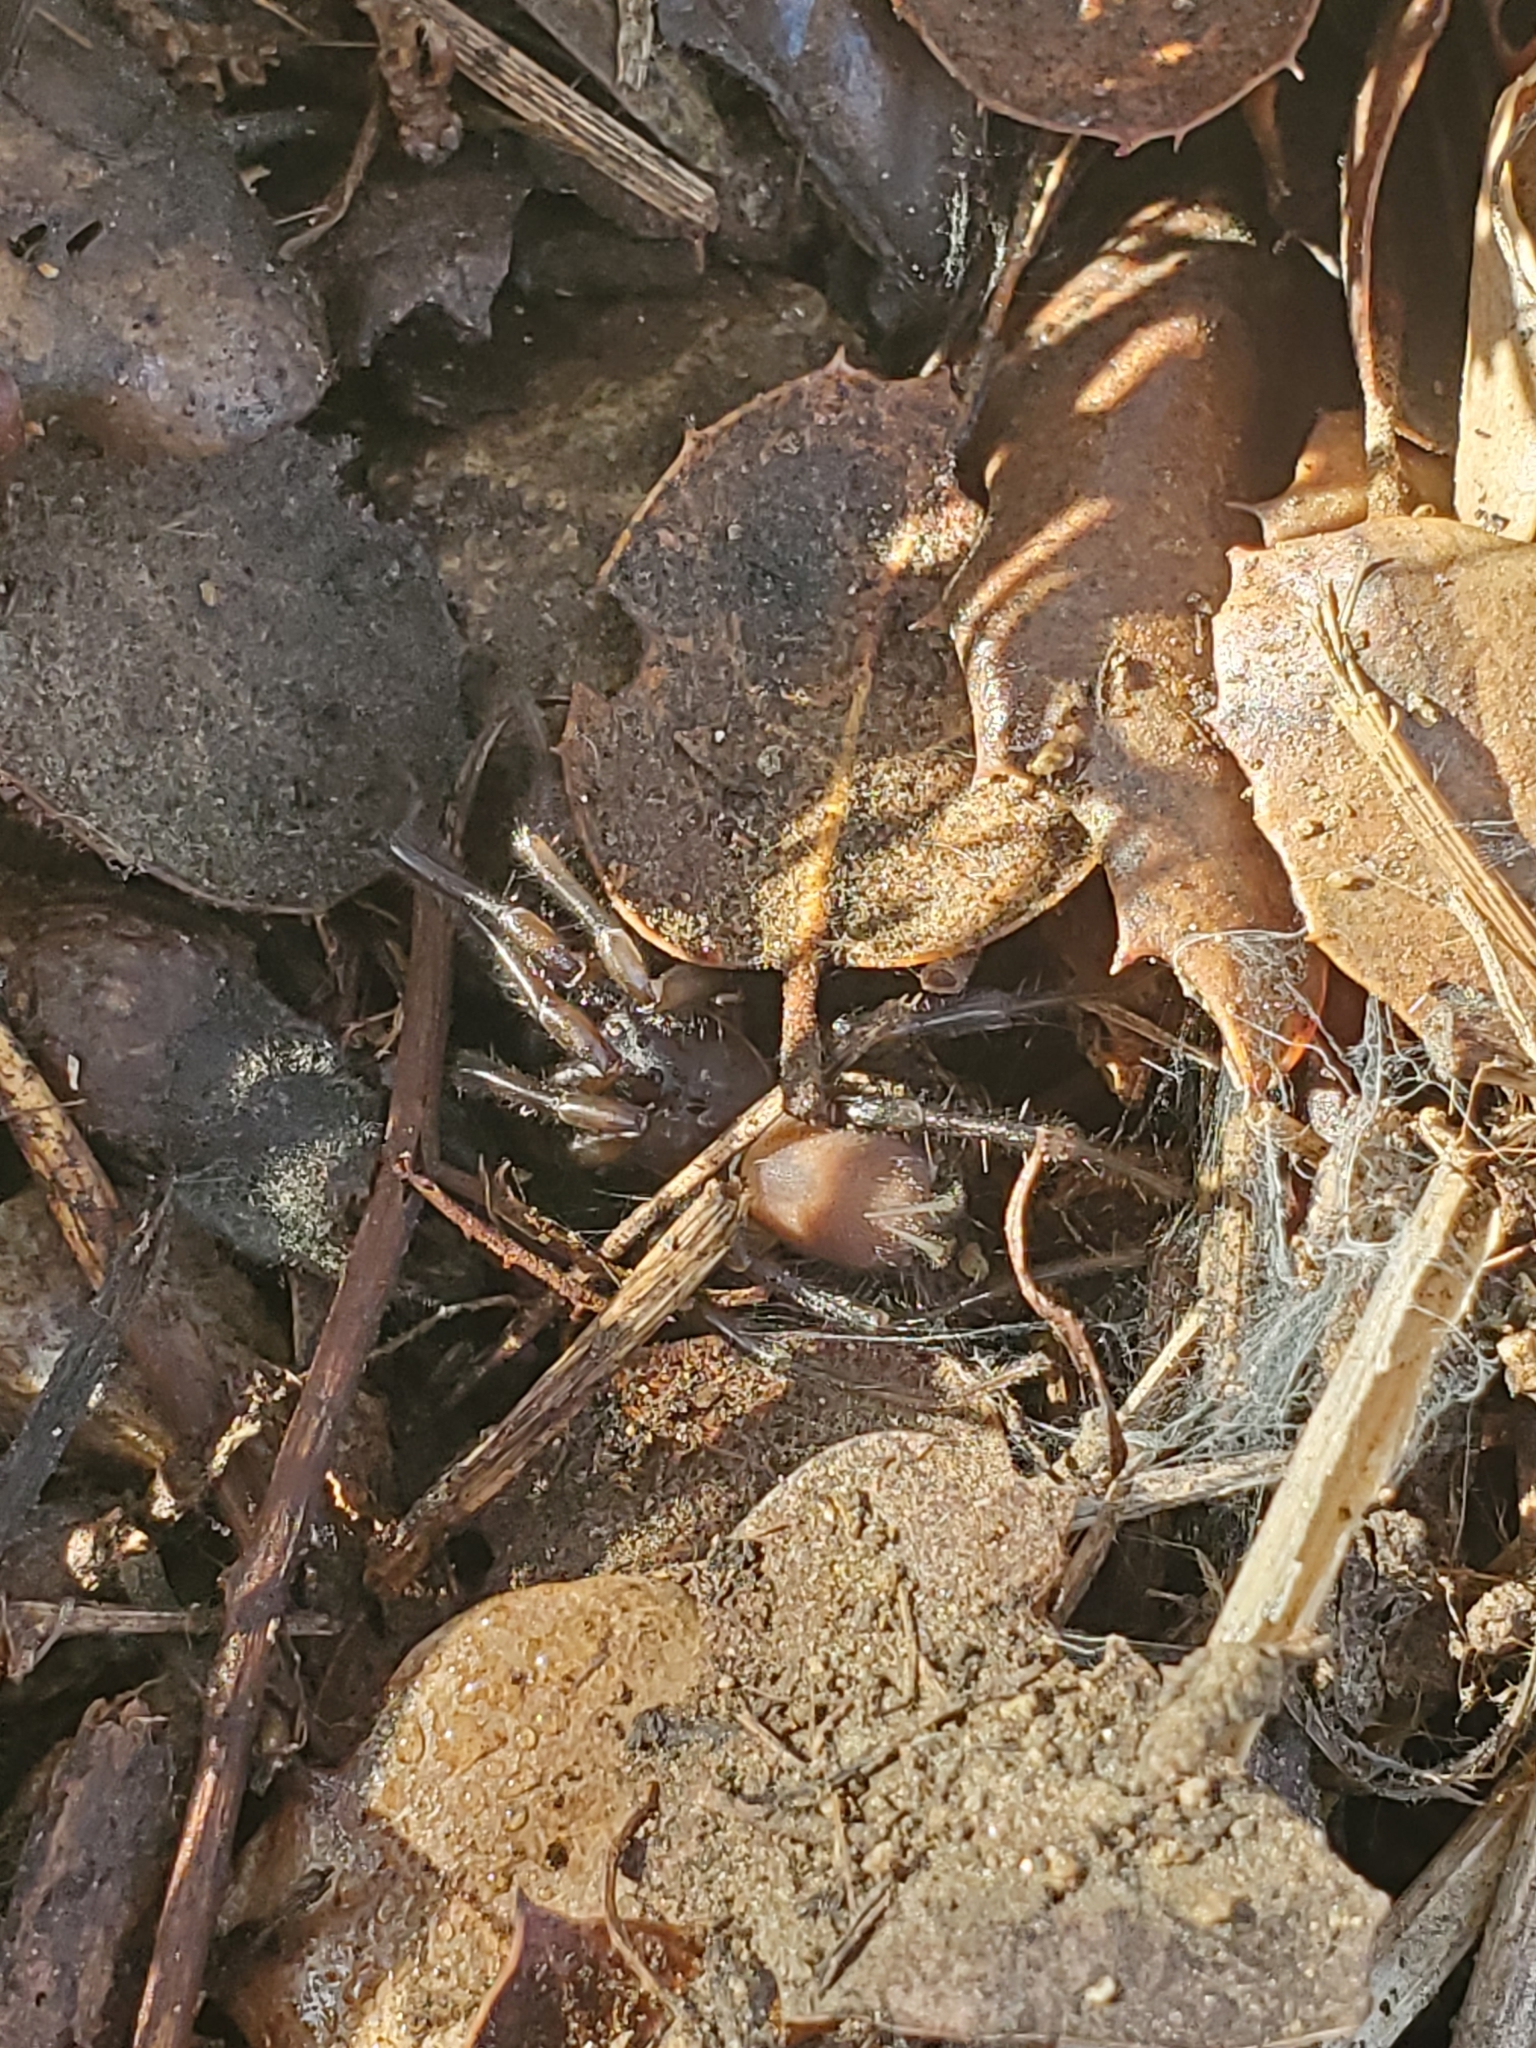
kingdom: Animalia
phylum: Arthropoda
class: Arachnida
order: Araneae
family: Megahexuridae
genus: Megahexura
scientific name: Megahexura fulva
